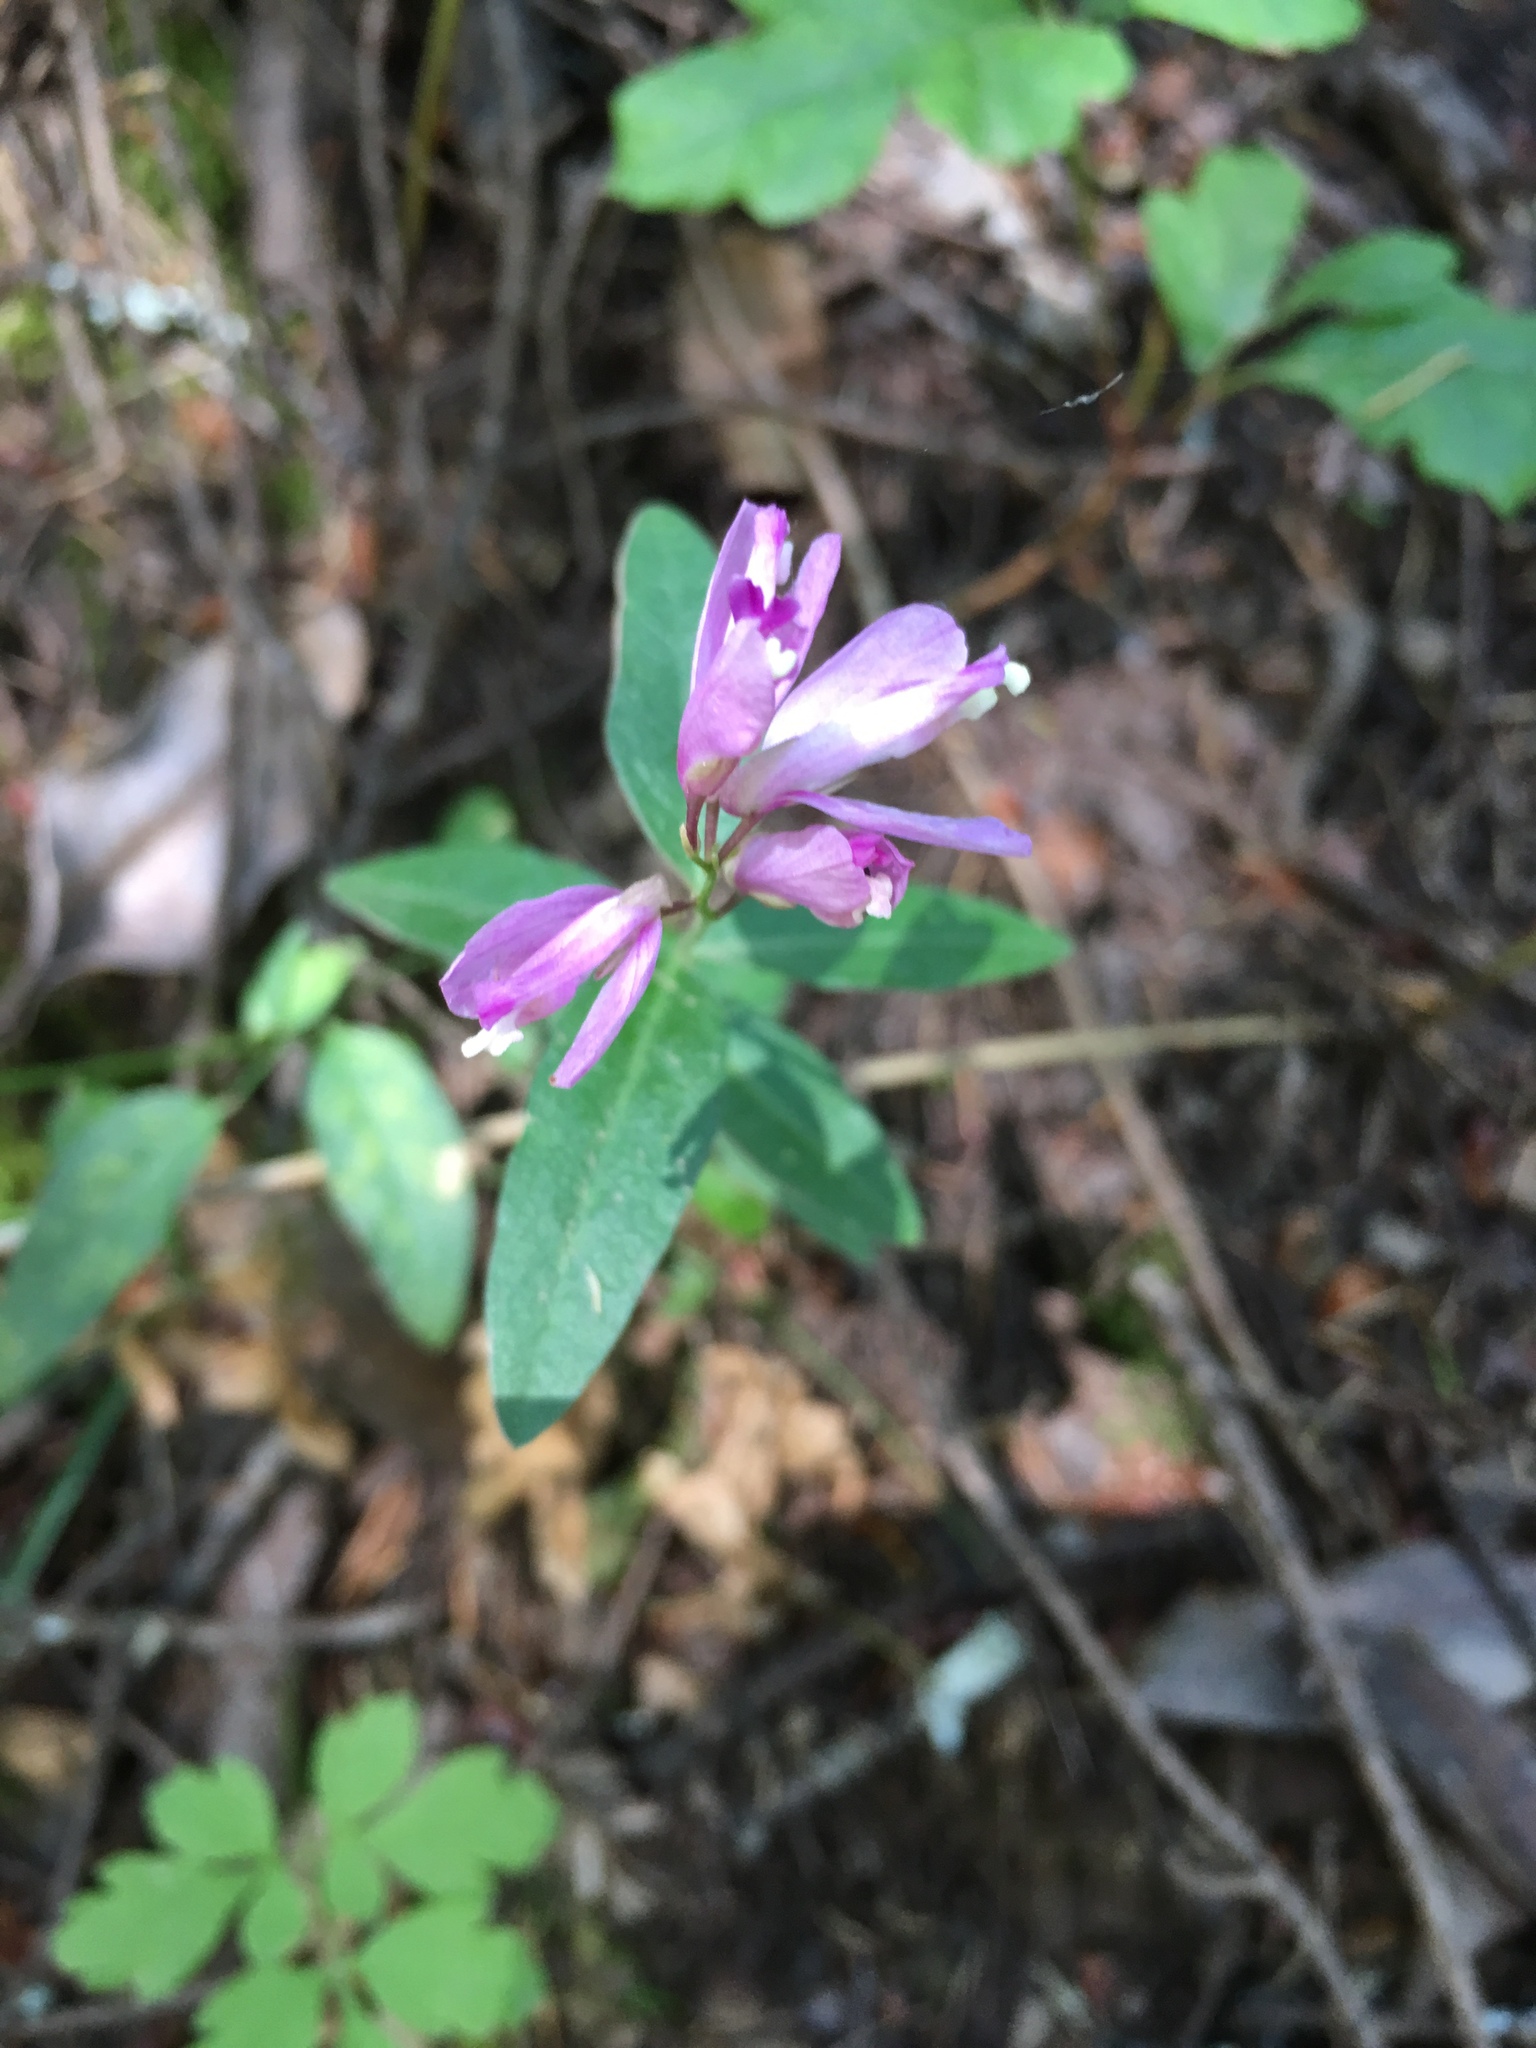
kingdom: Plantae
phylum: Tracheophyta
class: Magnoliopsida
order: Fabales
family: Polygalaceae
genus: Rhinotropis
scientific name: Rhinotropis californica
